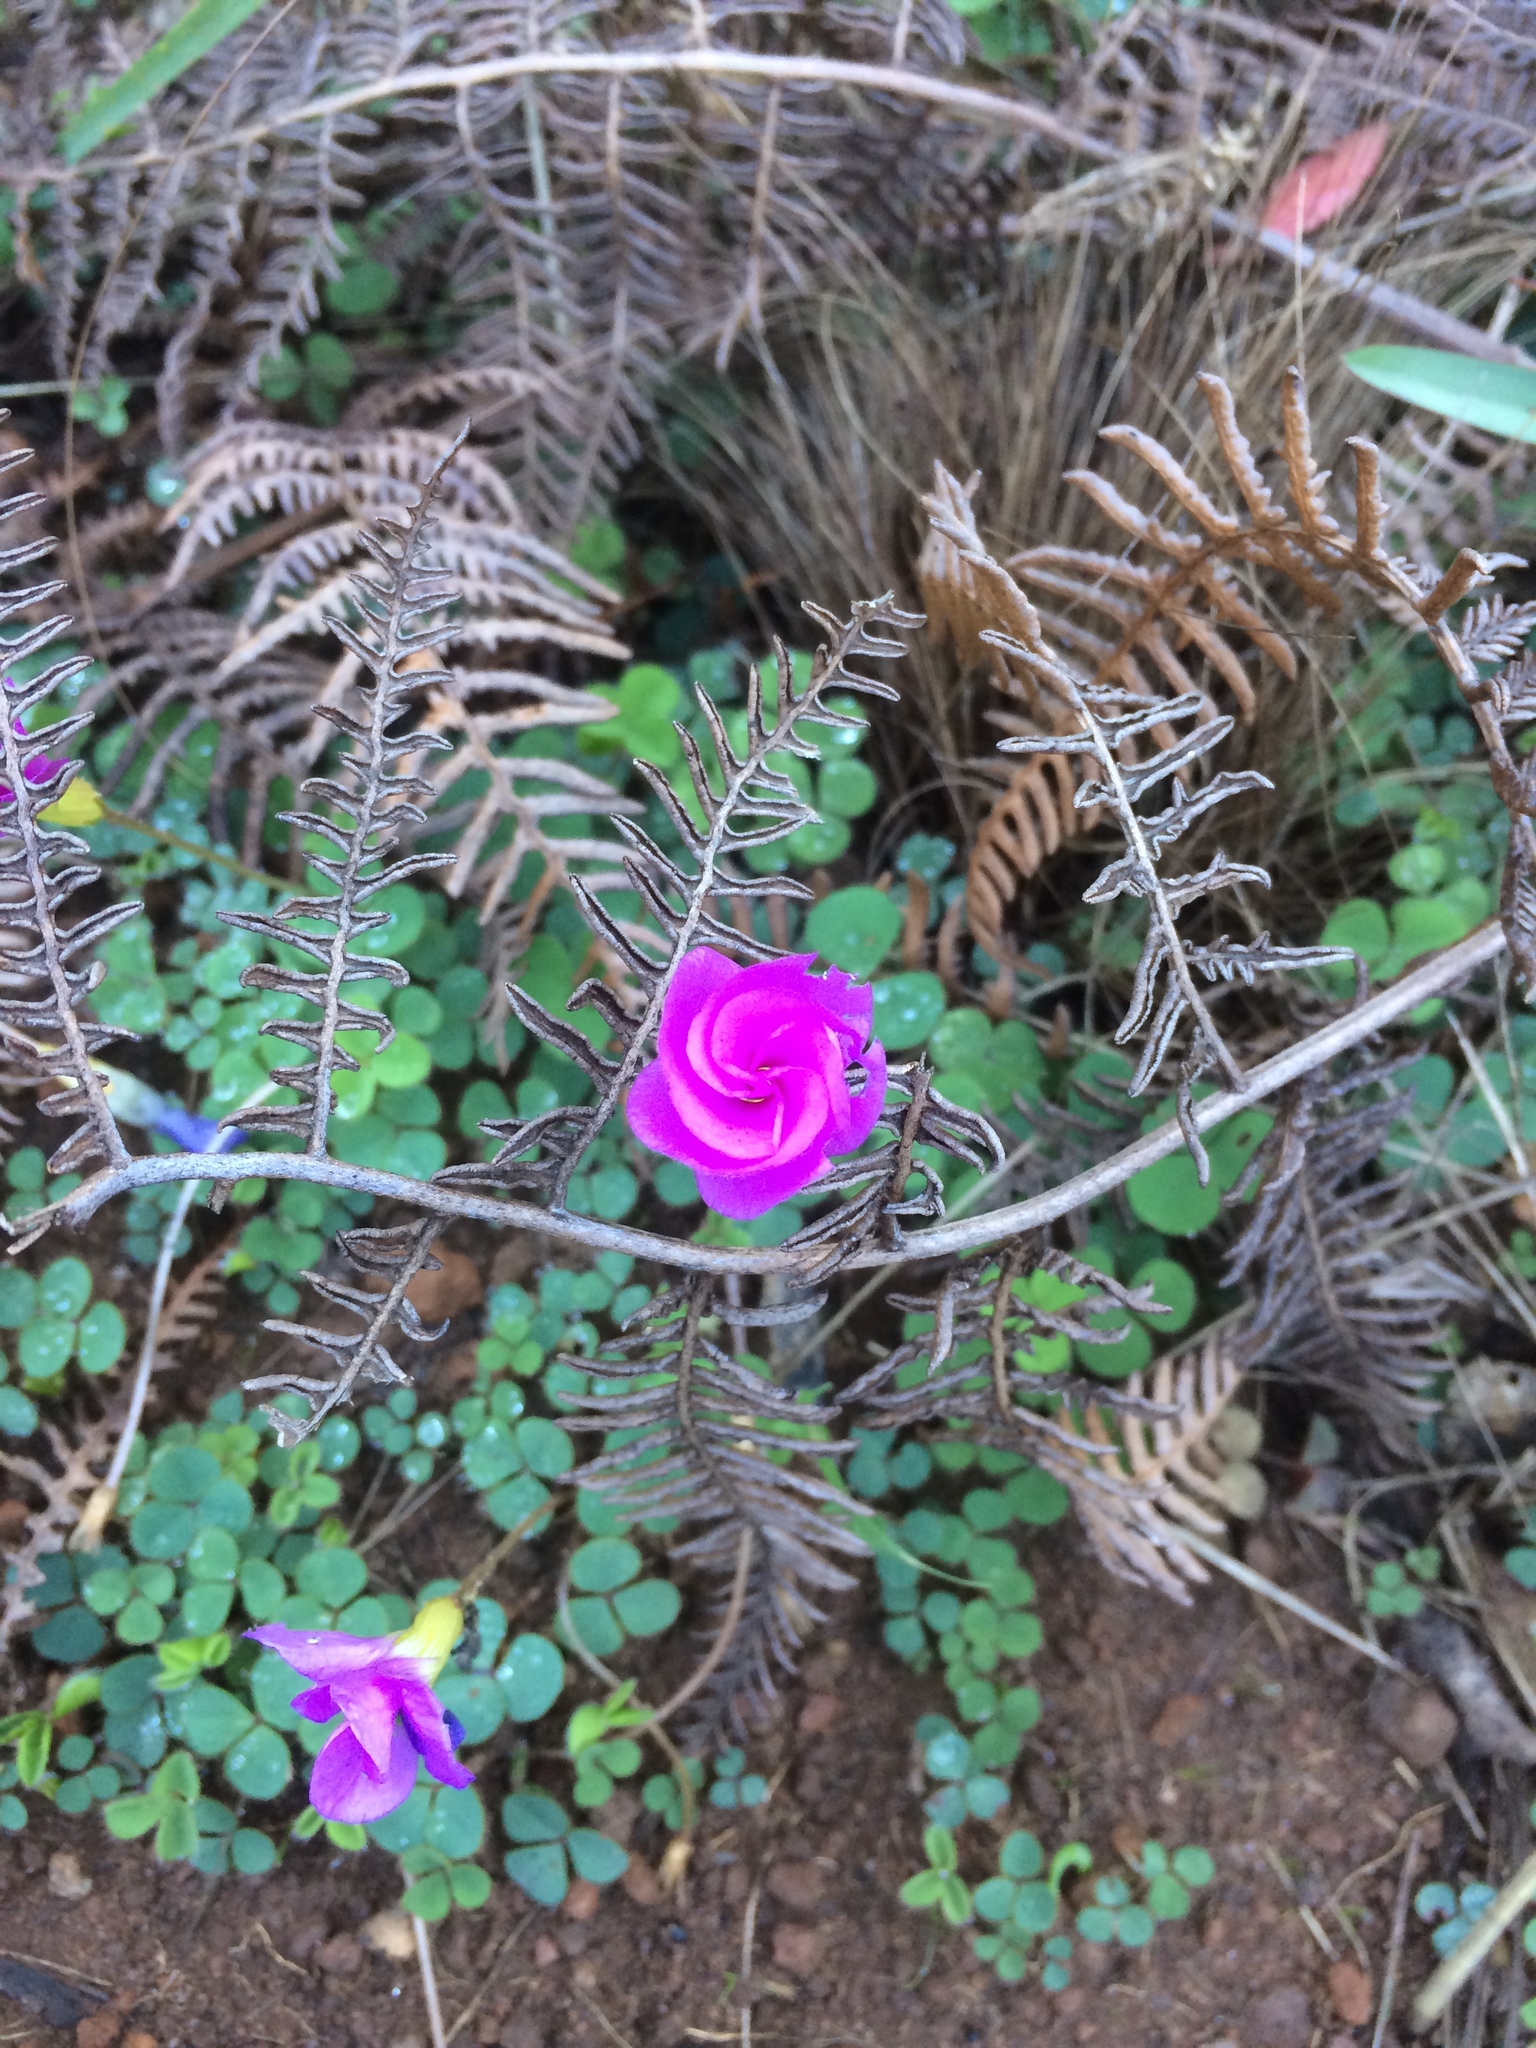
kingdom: Plantae
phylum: Tracheophyta
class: Magnoliopsida
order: Oxalidales
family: Oxalidaceae
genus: Oxalis
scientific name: Oxalis purpurea
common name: Purple woodsorrel
